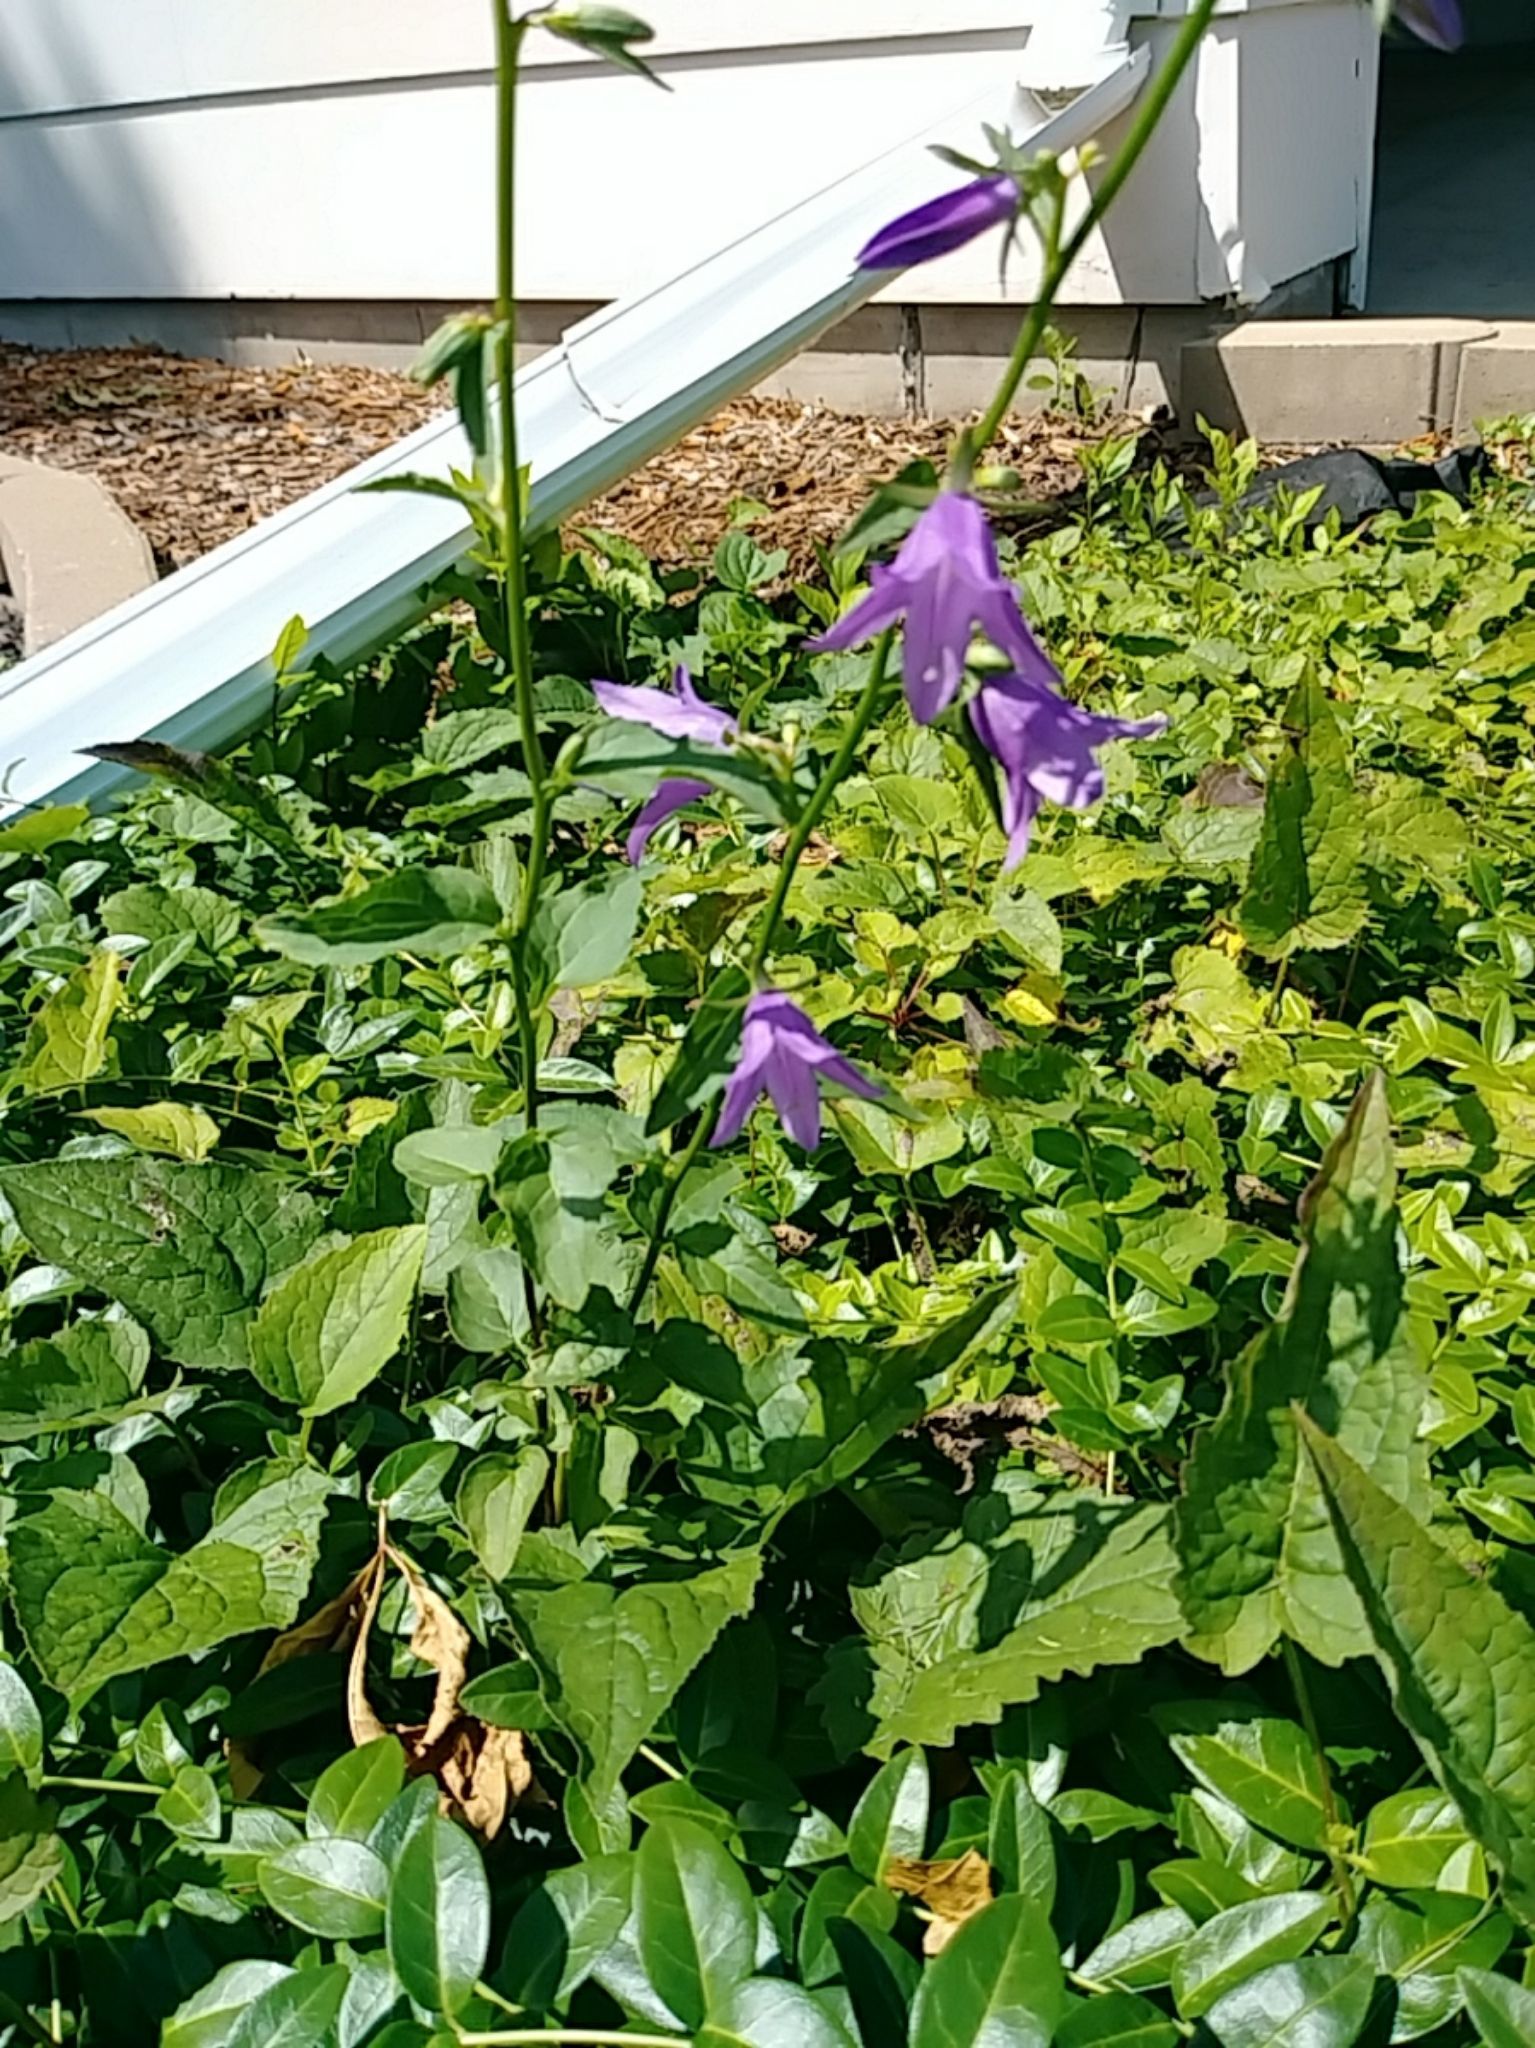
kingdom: Plantae
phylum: Tracheophyta
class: Magnoliopsida
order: Asterales
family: Campanulaceae
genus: Campanula
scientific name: Campanula rapunculoides
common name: Creeping bellflower
